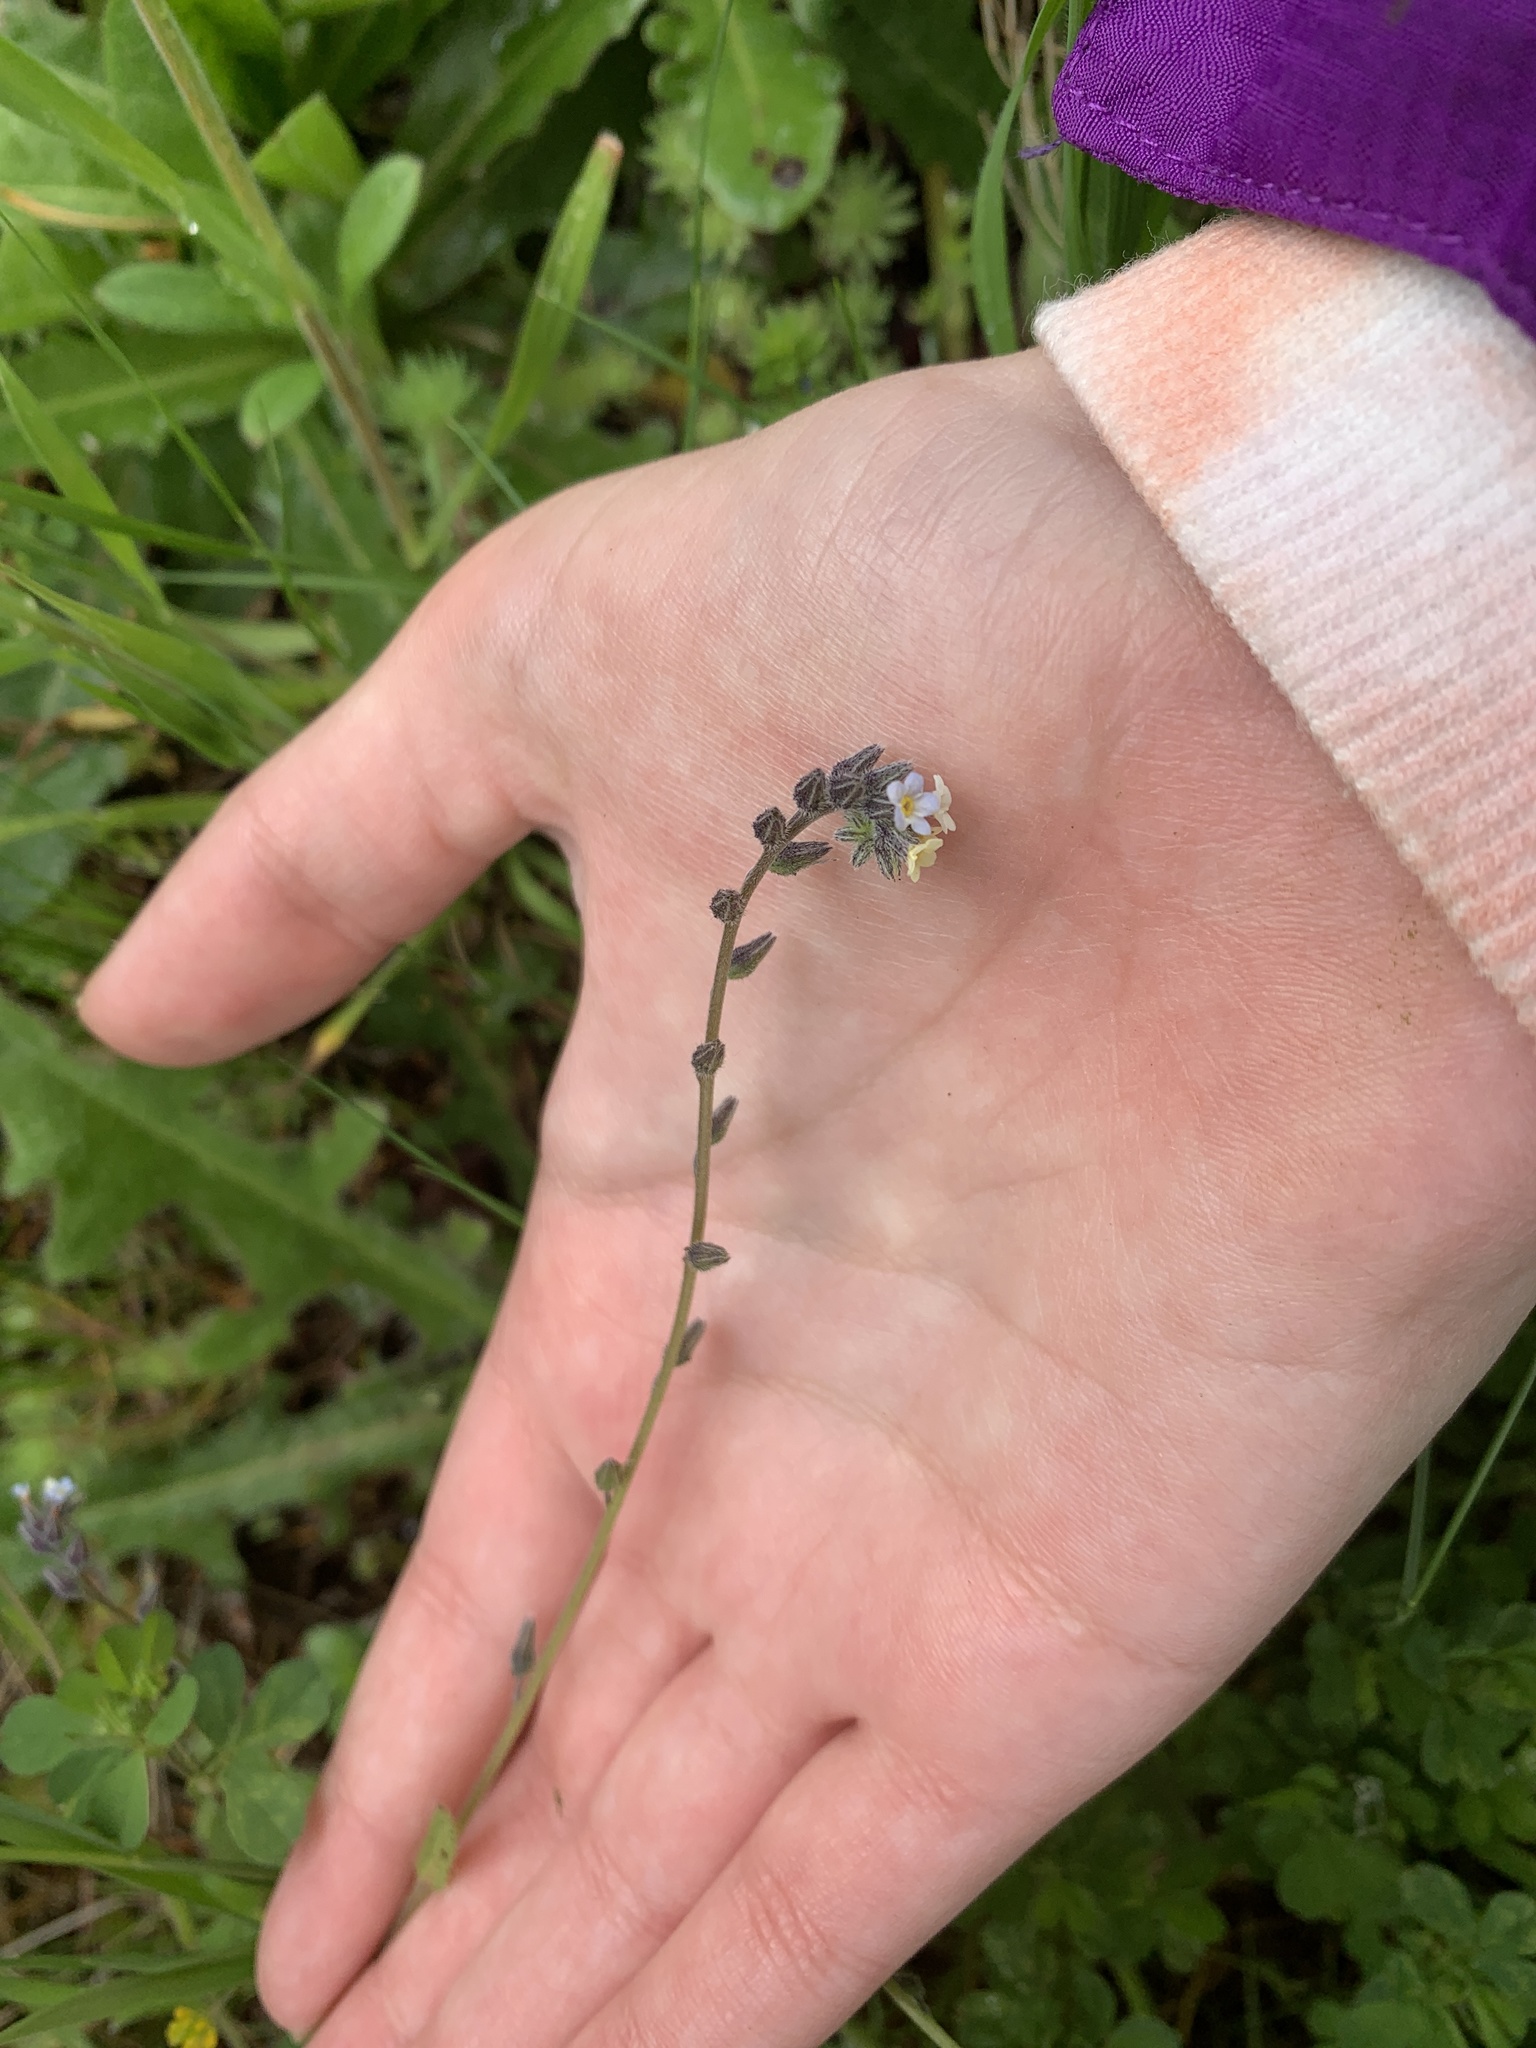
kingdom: Plantae
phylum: Tracheophyta
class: Magnoliopsida
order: Boraginales
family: Boraginaceae
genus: Myosotis
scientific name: Myosotis discolor
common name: Changing forget-me-not
